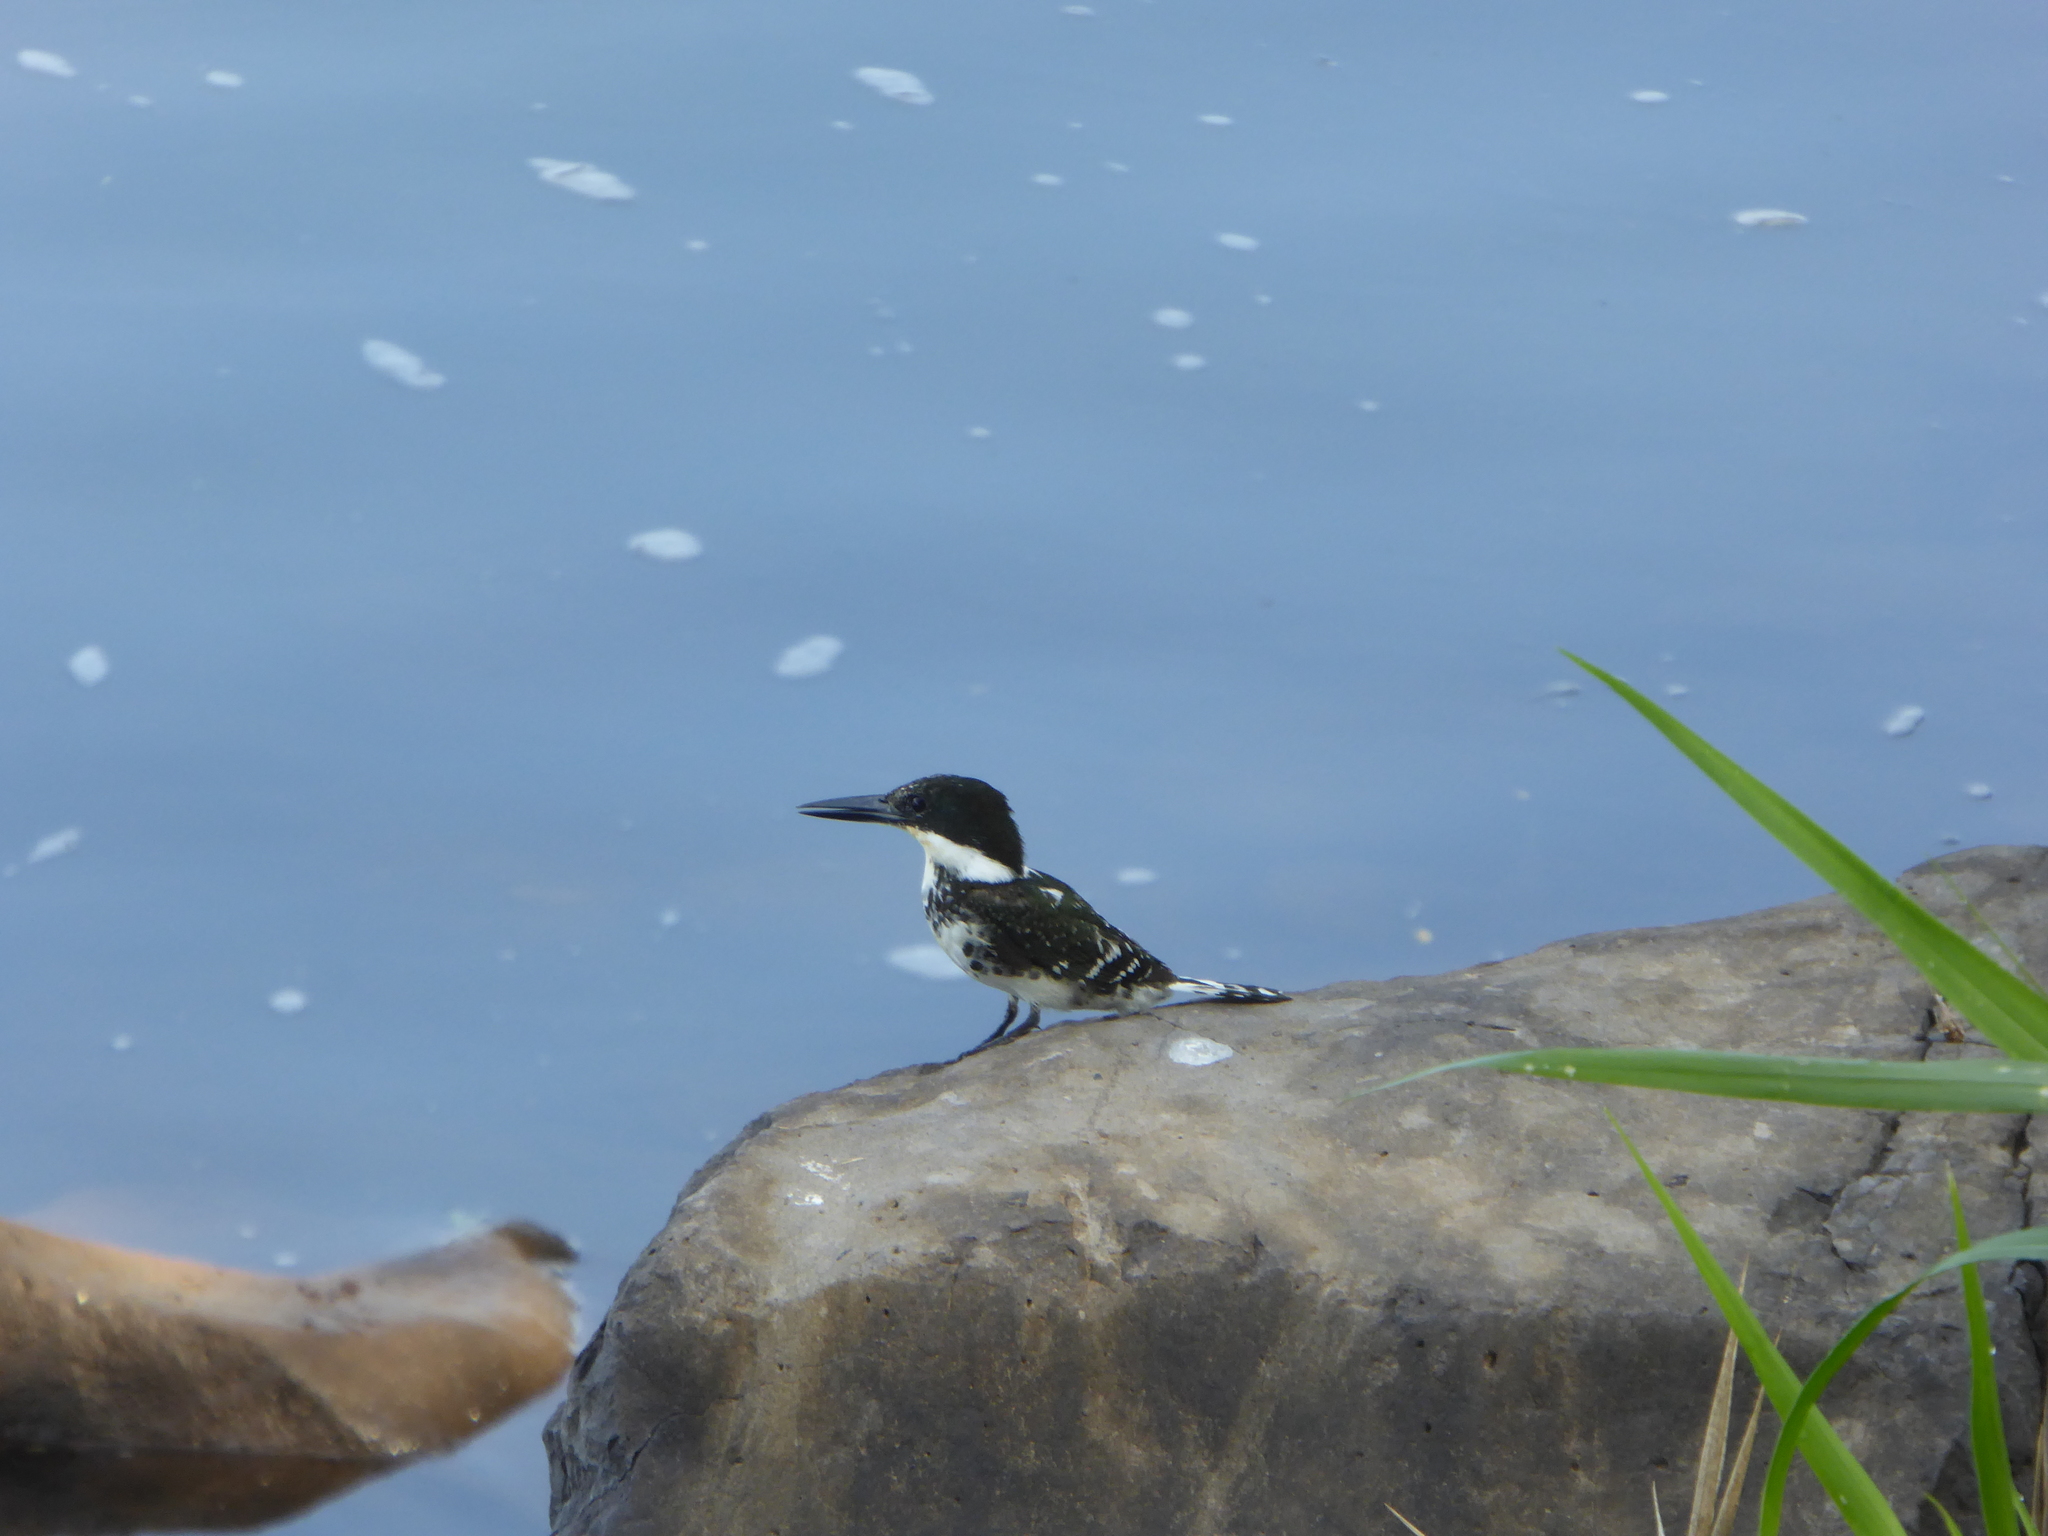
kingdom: Animalia
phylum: Chordata
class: Aves
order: Coraciiformes
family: Alcedinidae
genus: Chloroceryle
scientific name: Chloroceryle americana
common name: Green kingfisher
